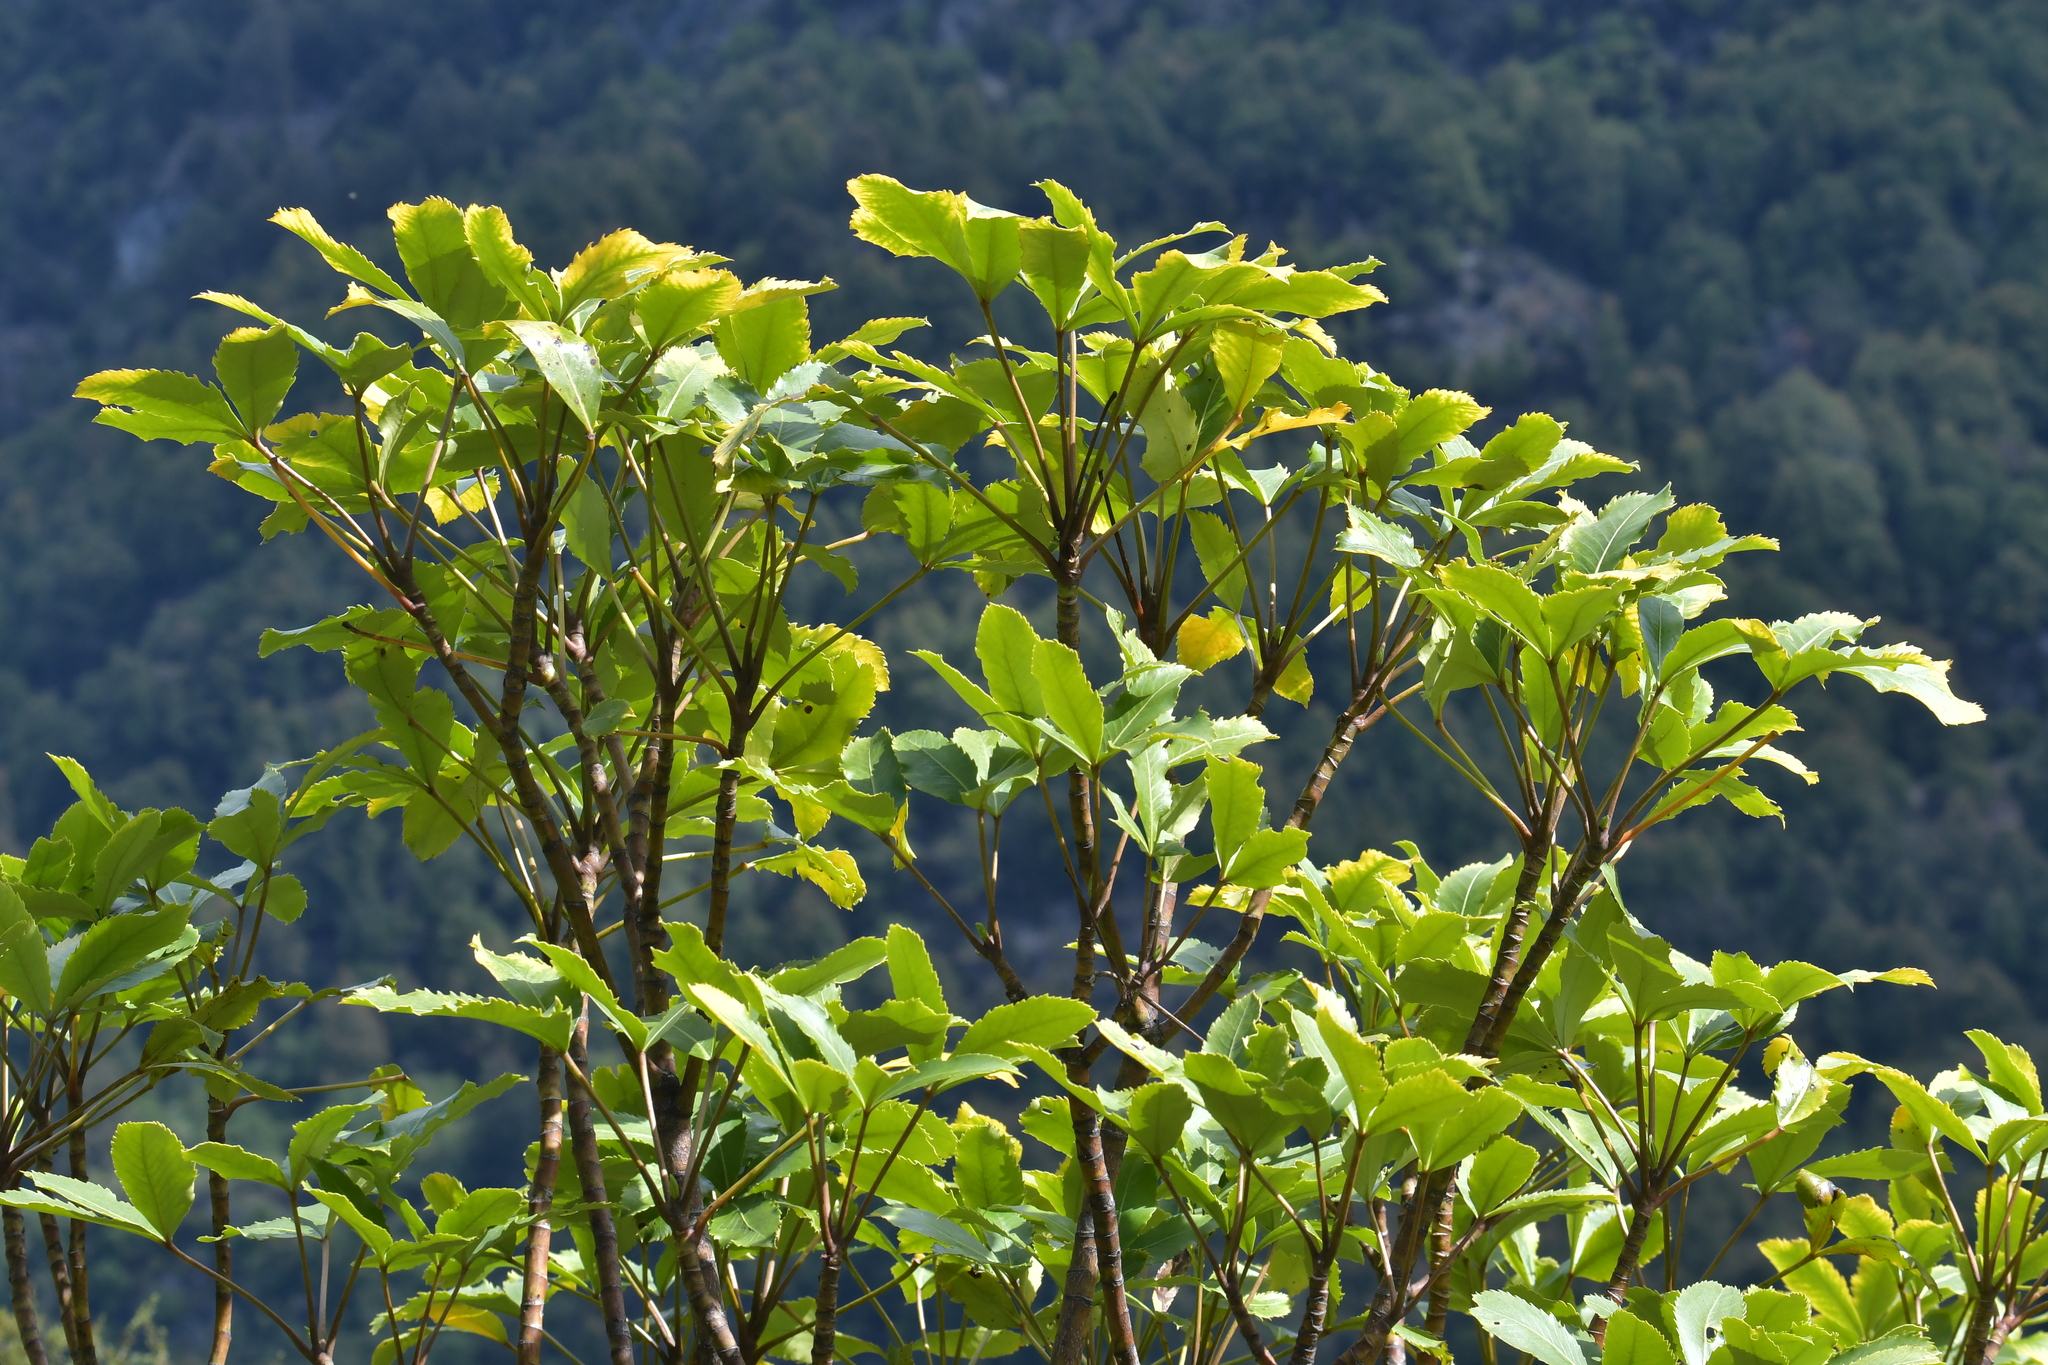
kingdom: Plantae
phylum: Tracheophyta
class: Magnoliopsida
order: Apiales
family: Araliaceae
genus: Neopanax
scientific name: Neopanax colensoi
